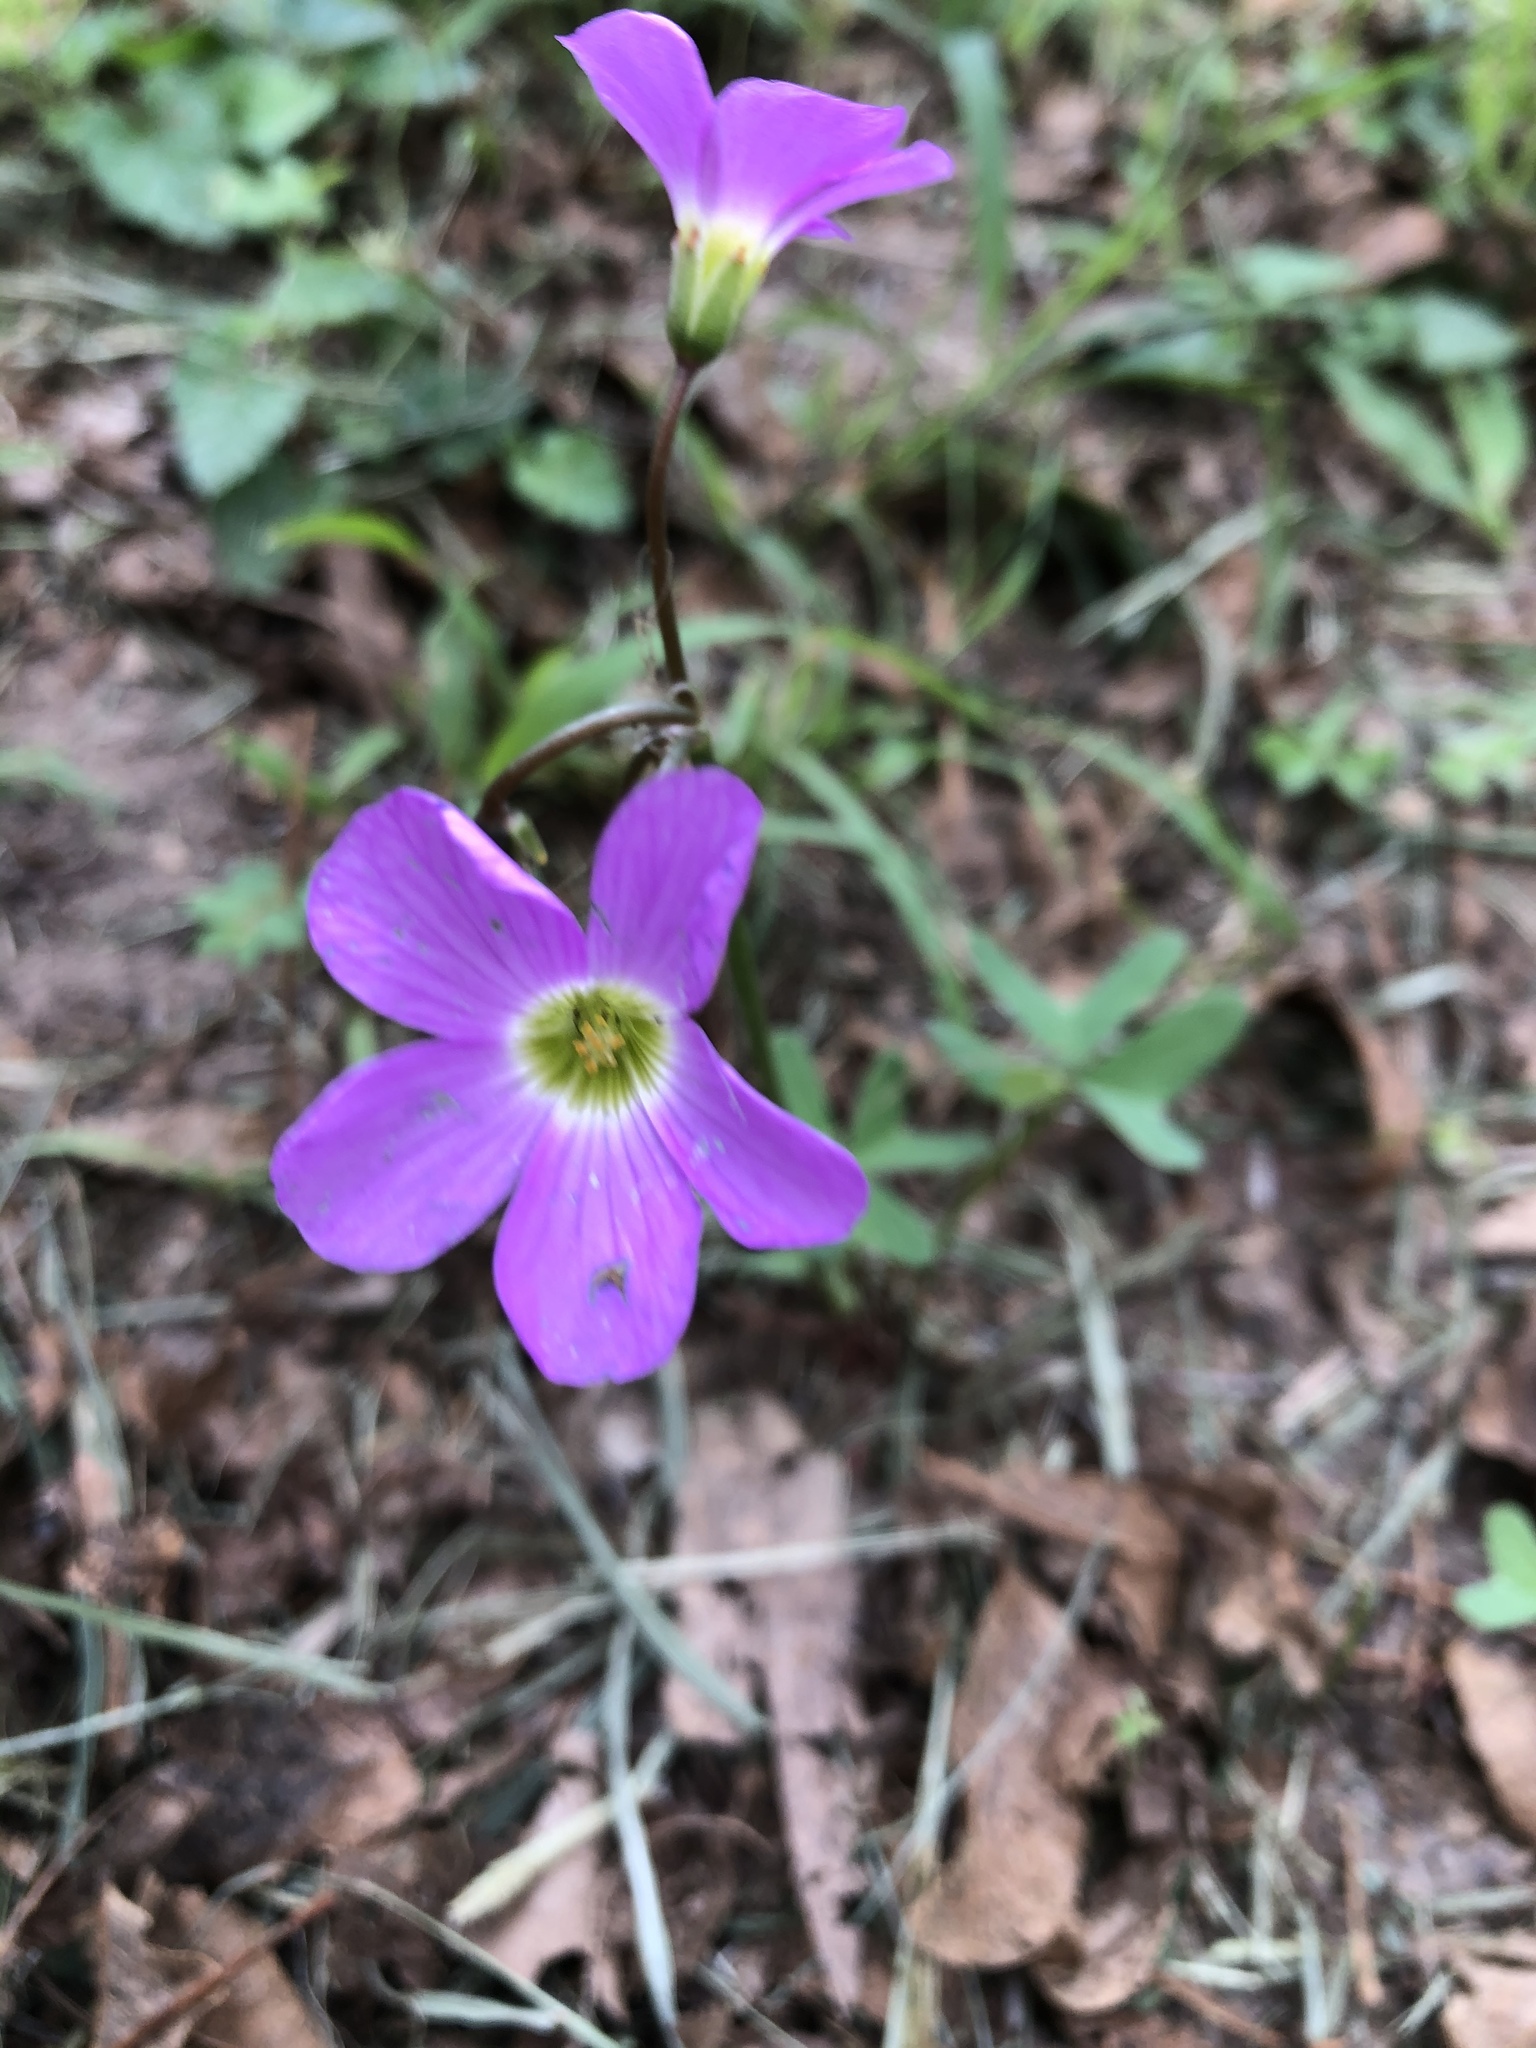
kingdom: Plantae
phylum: Tracheophyta
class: Magnoliopsida
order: Oxalidales
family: Oxalidaceae
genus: Oxalis
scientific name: Oxalis drummondii
